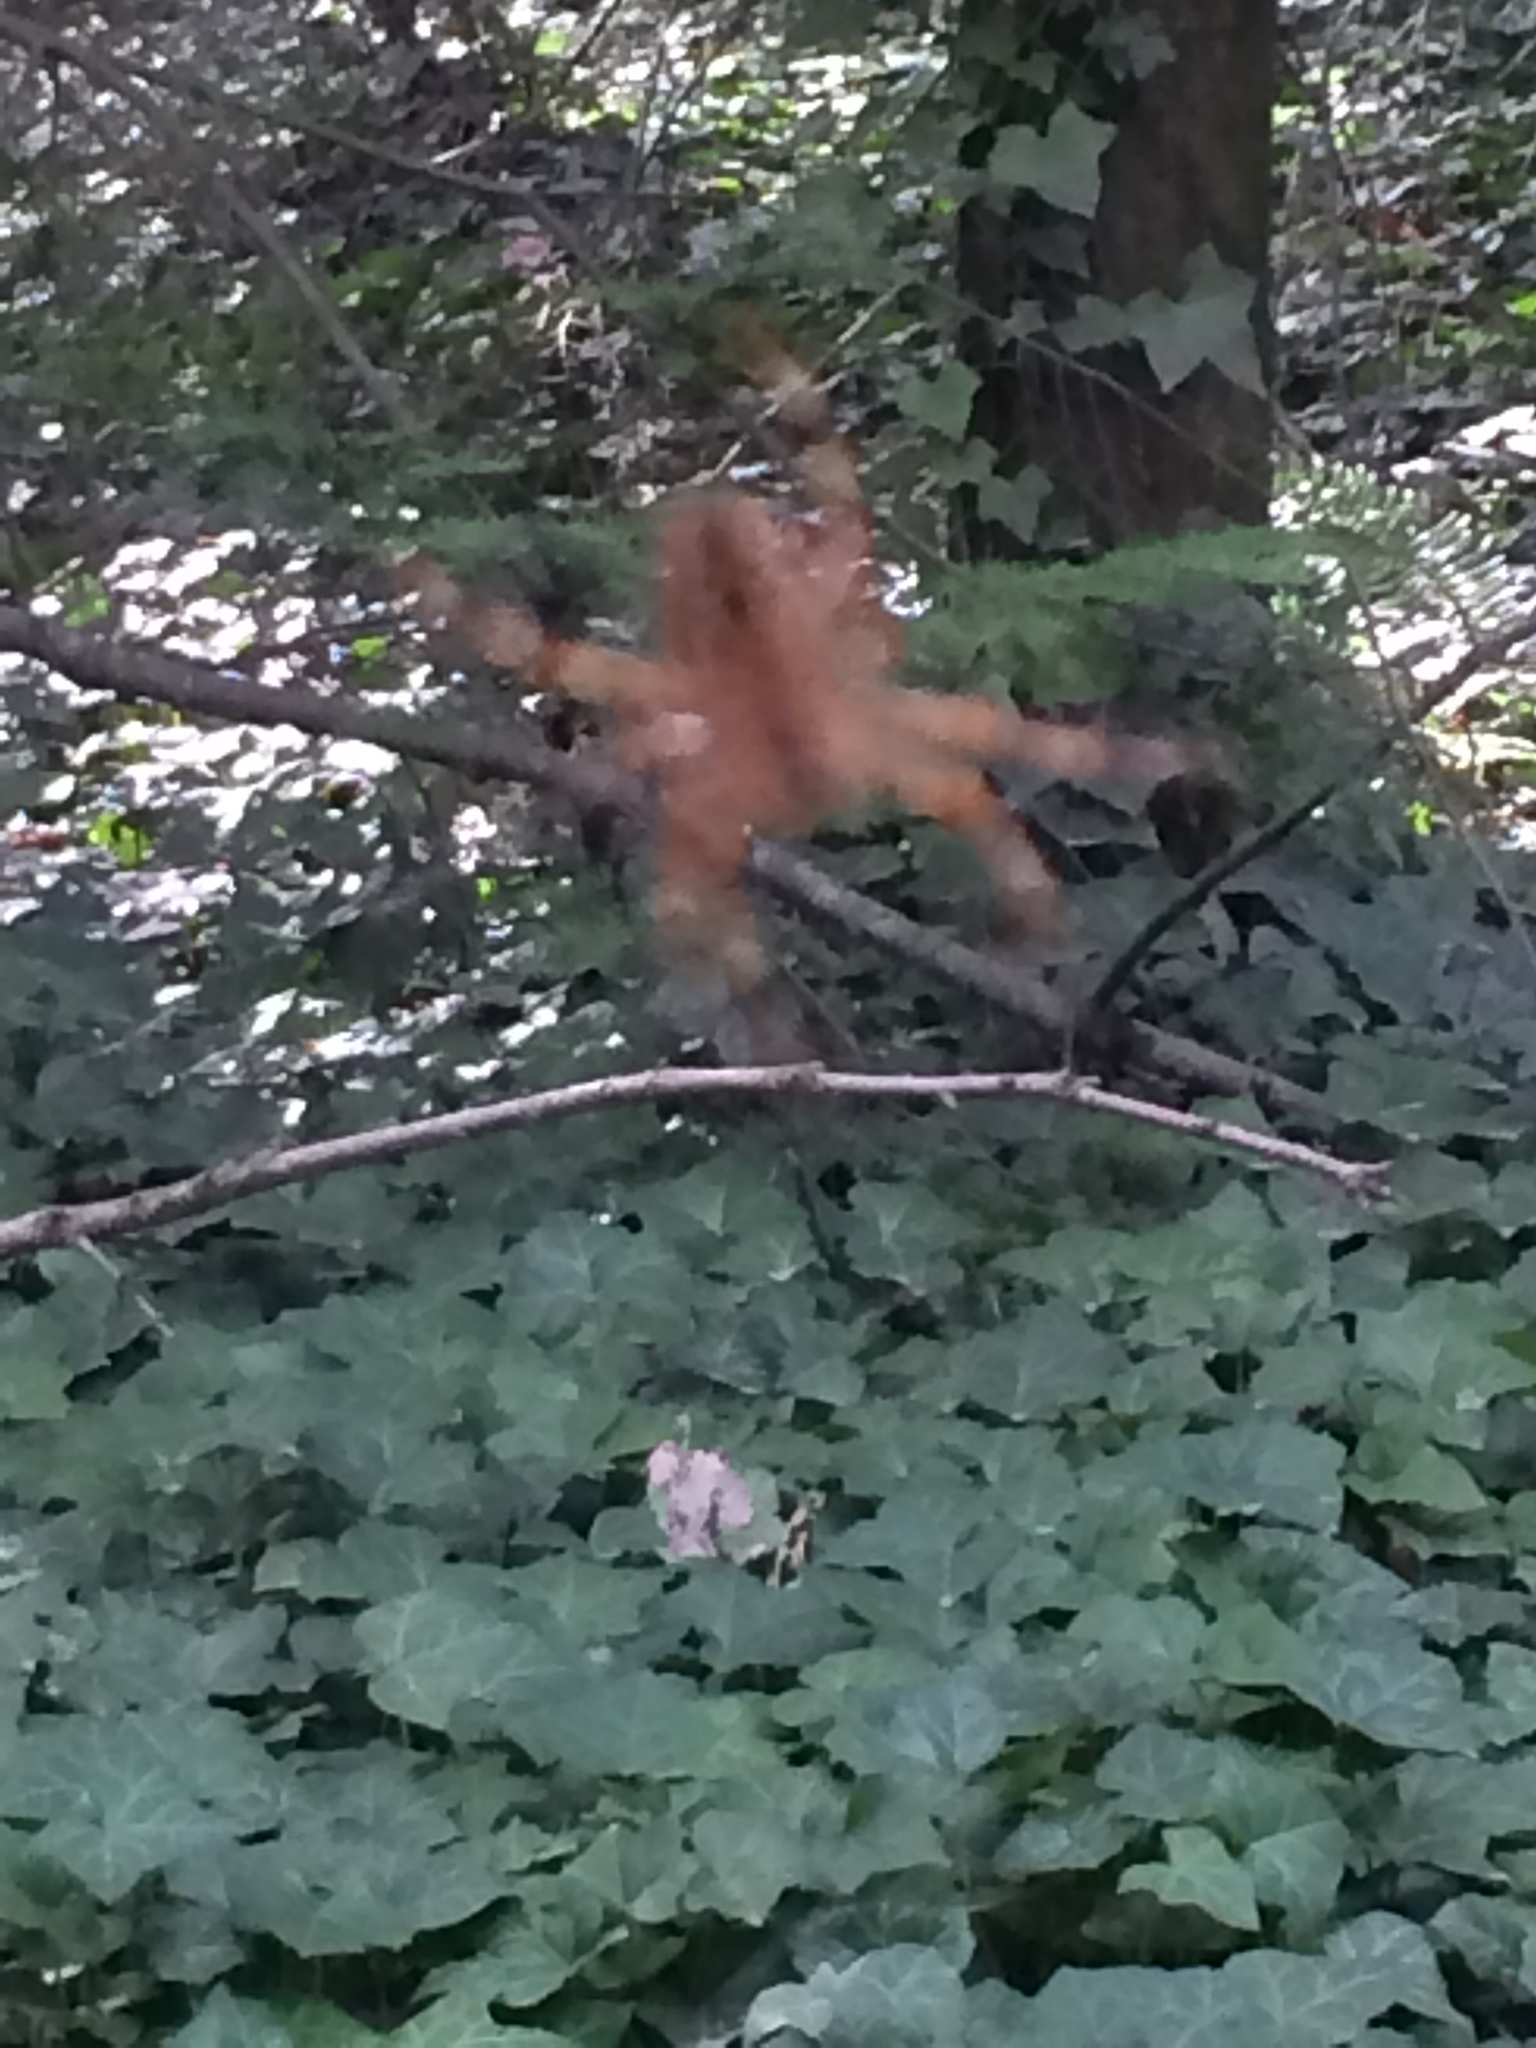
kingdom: Animalia
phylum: Arthropoda
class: Arachnida
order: Araneae
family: Araneidae
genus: Araneus
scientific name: Araneus diadematus
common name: Cross orbweaver
